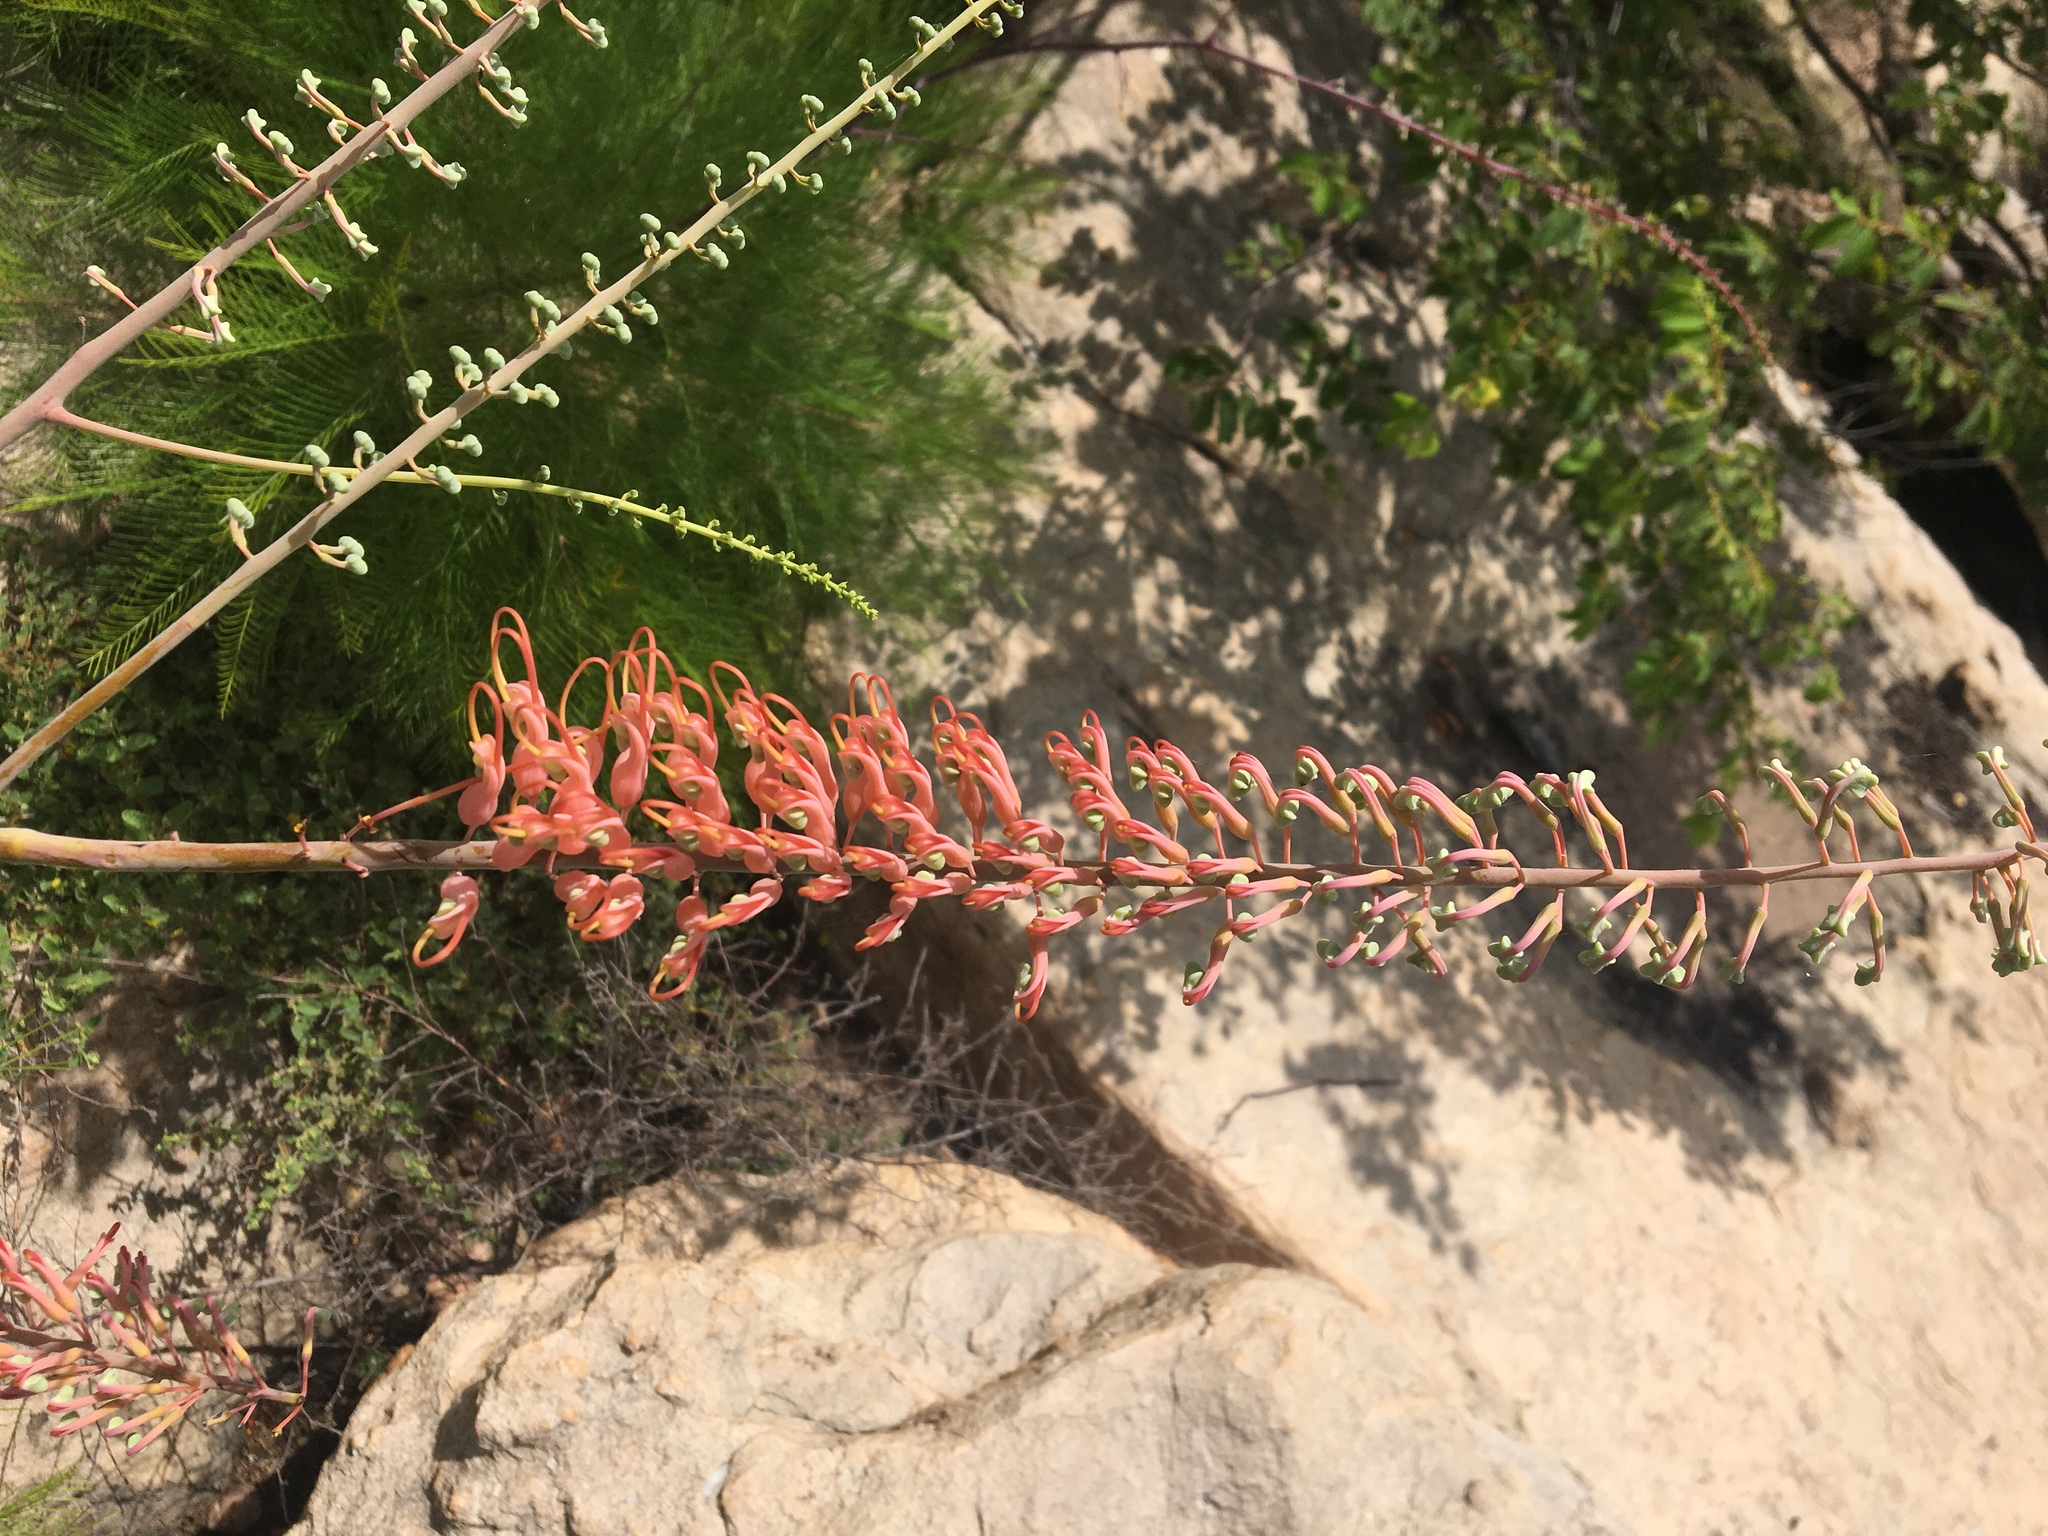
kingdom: Plantae
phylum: Tracheophyta
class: Magnoliopsida
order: Proteales
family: Proteaceae
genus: Grevillea
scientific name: Grevillea dryandri
